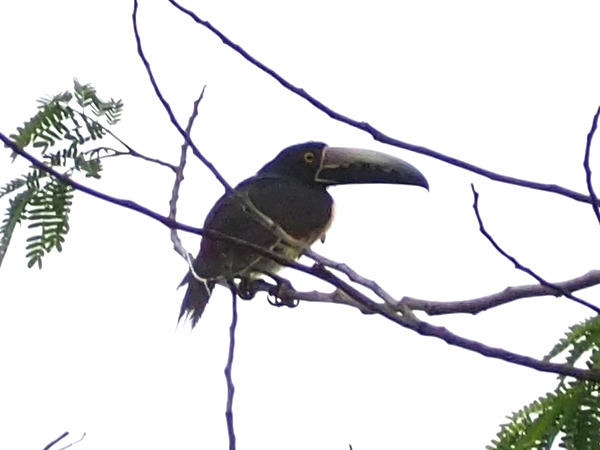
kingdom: Animalia
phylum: Chordata
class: Aves
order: Piciformes
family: Ramphastidae
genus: Pteroglossus
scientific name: Pteroglossus torquatus
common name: Collared aracari
